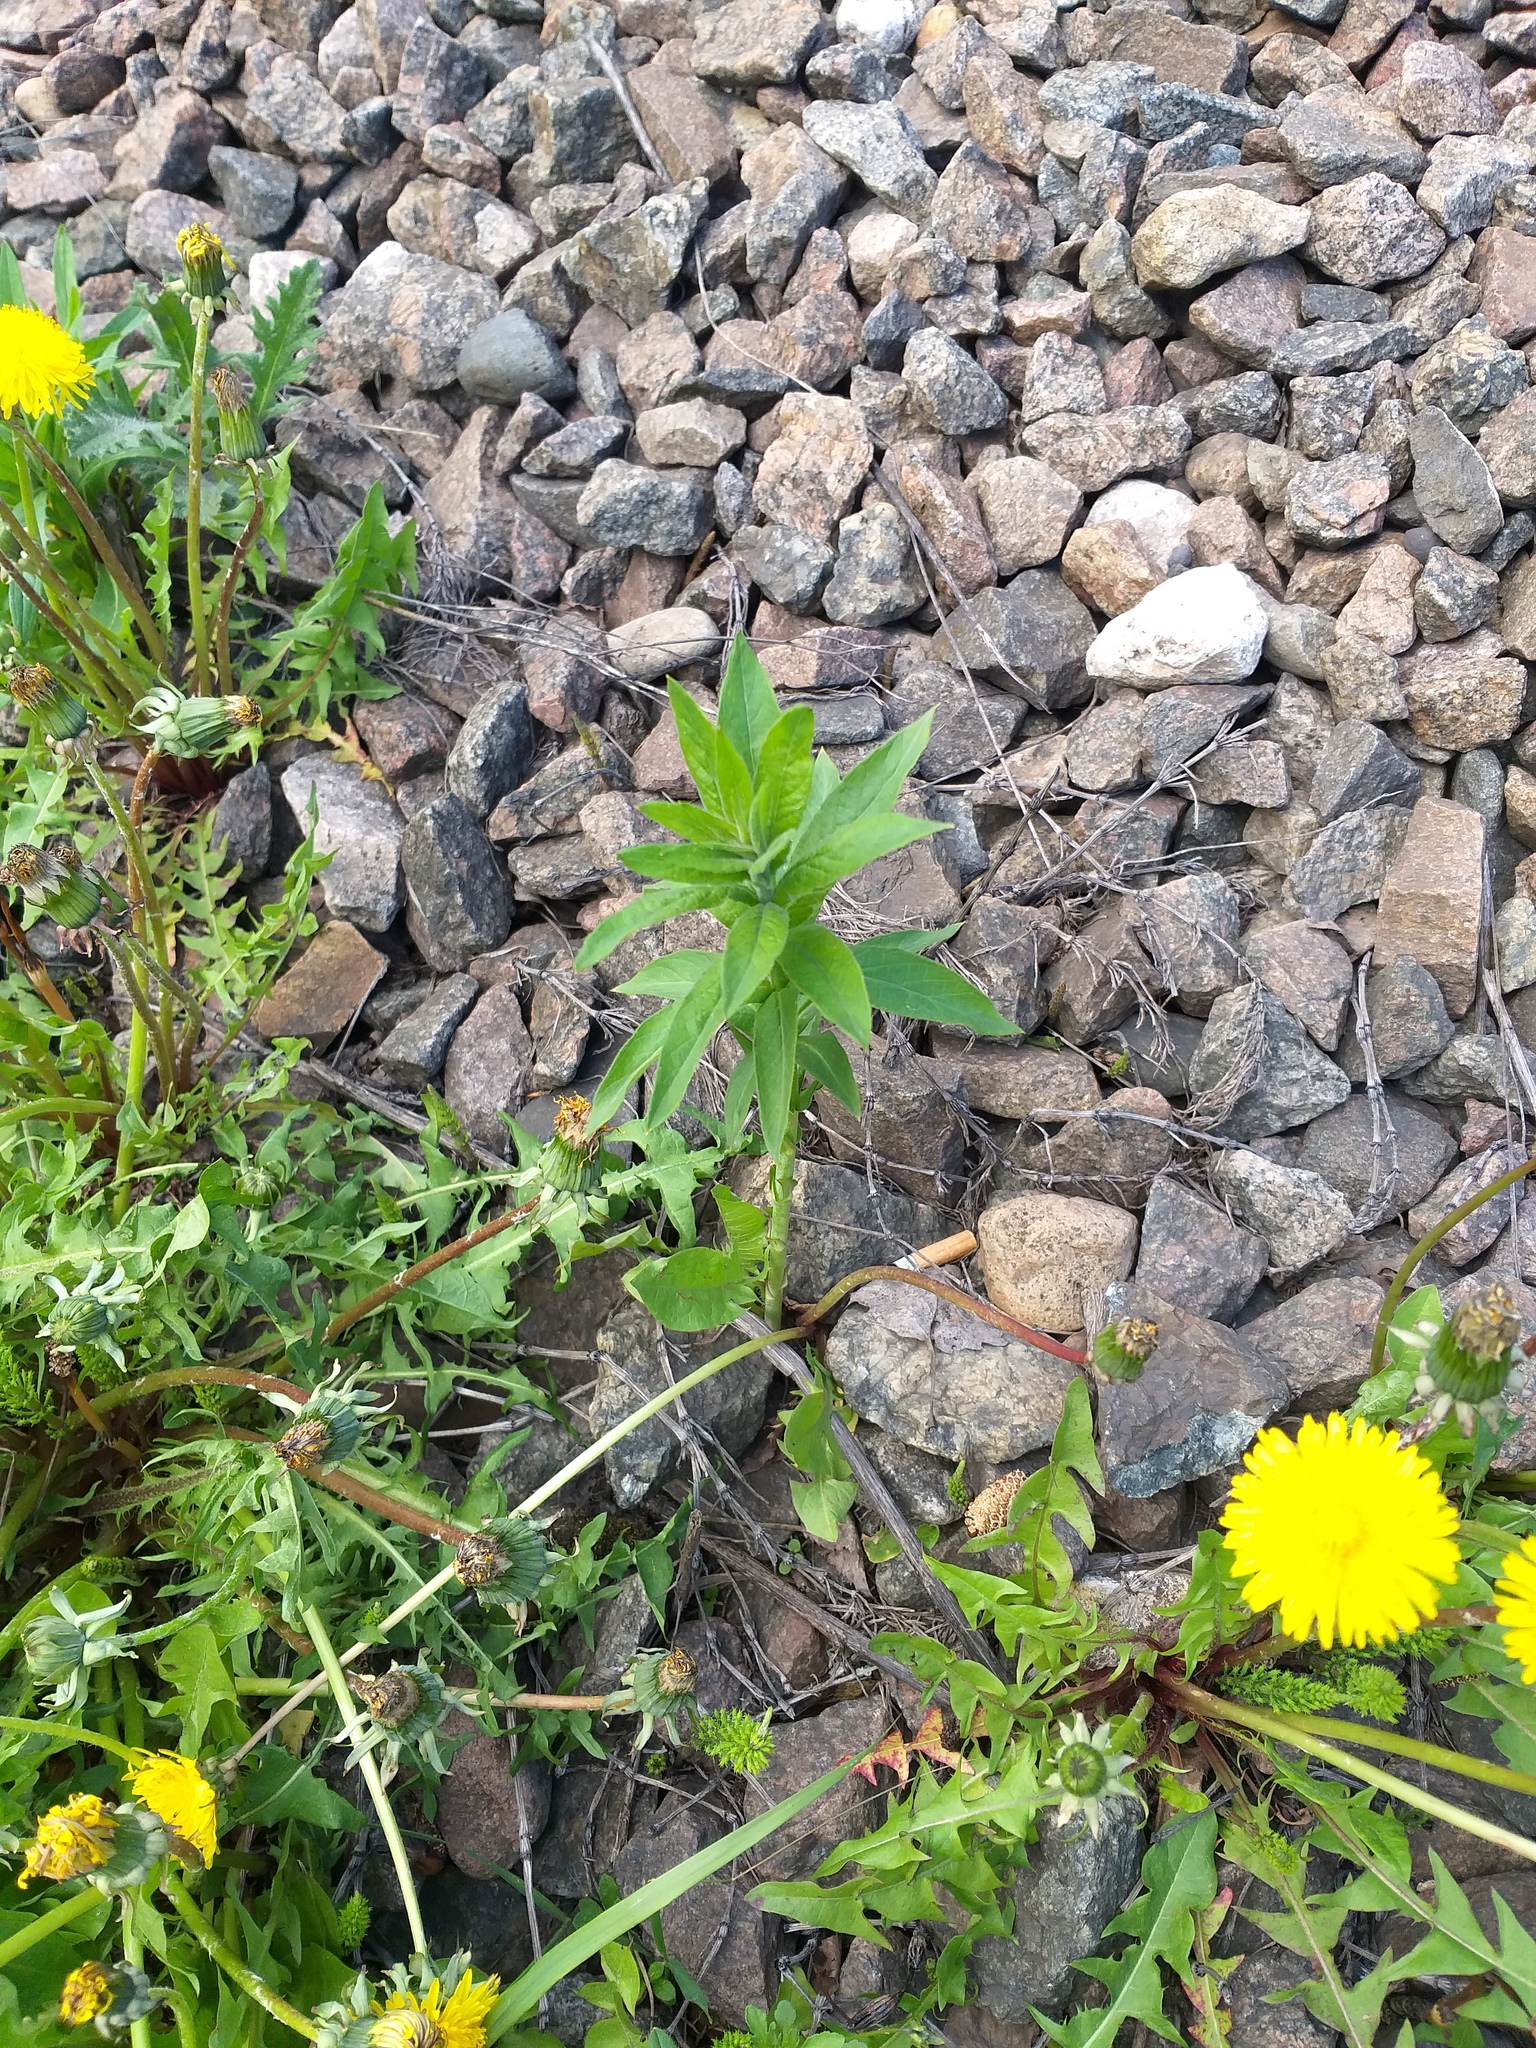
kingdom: Plantae
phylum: Tracheophyta
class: Magnoliopsida
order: Ericales
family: Primulaceae
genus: Lysimachia
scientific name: Lysimachia vulgaris
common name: Yellow loosestrife
